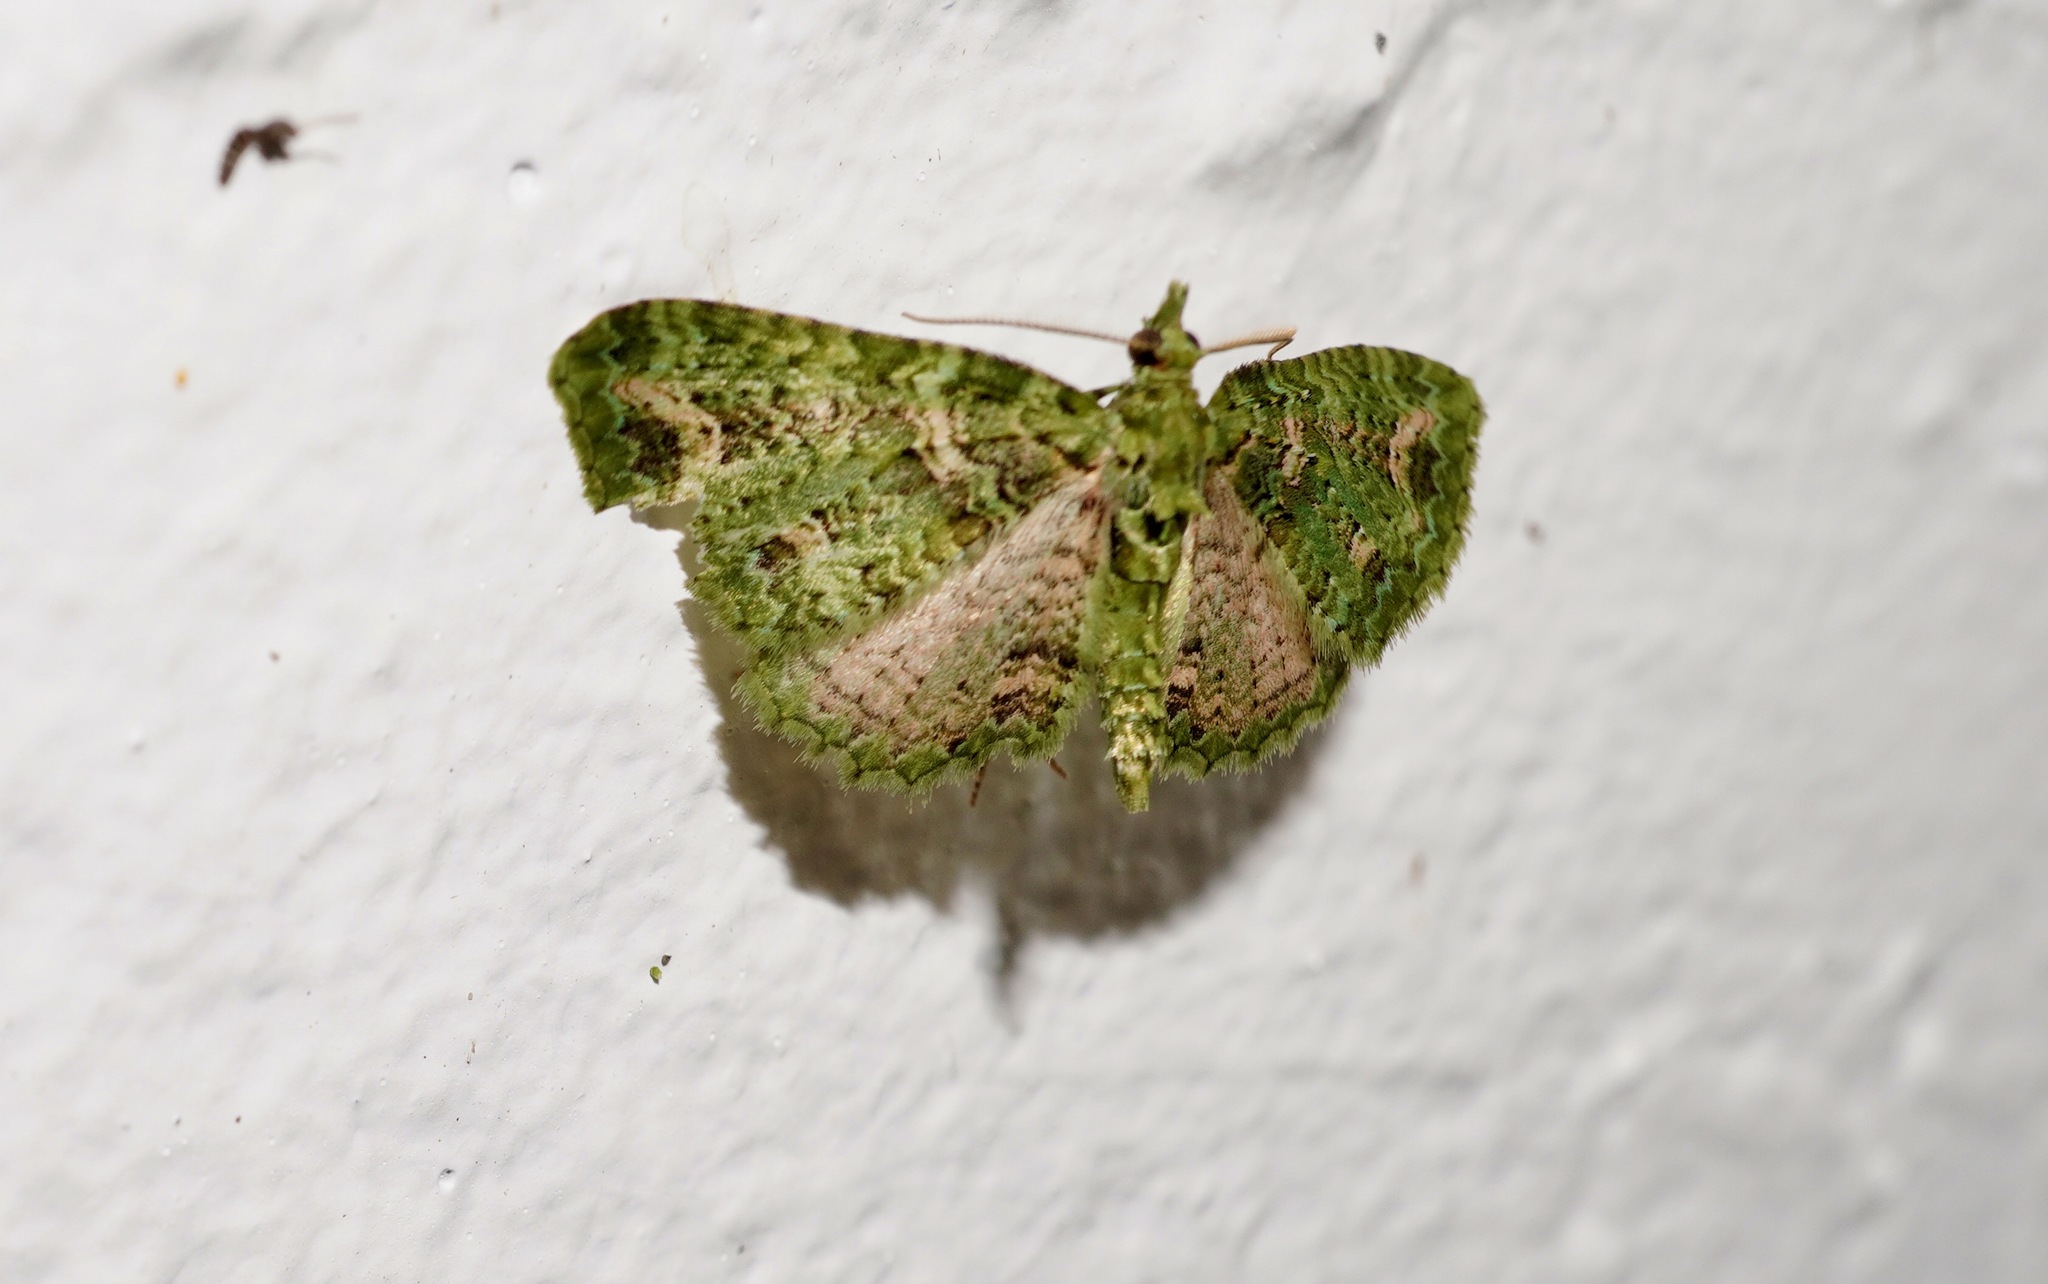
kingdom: Animalia
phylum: Arthropoda
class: Insecta
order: Lepidoptera
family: Geometridae
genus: Pasiphila
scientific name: Pasiphila muscosata
